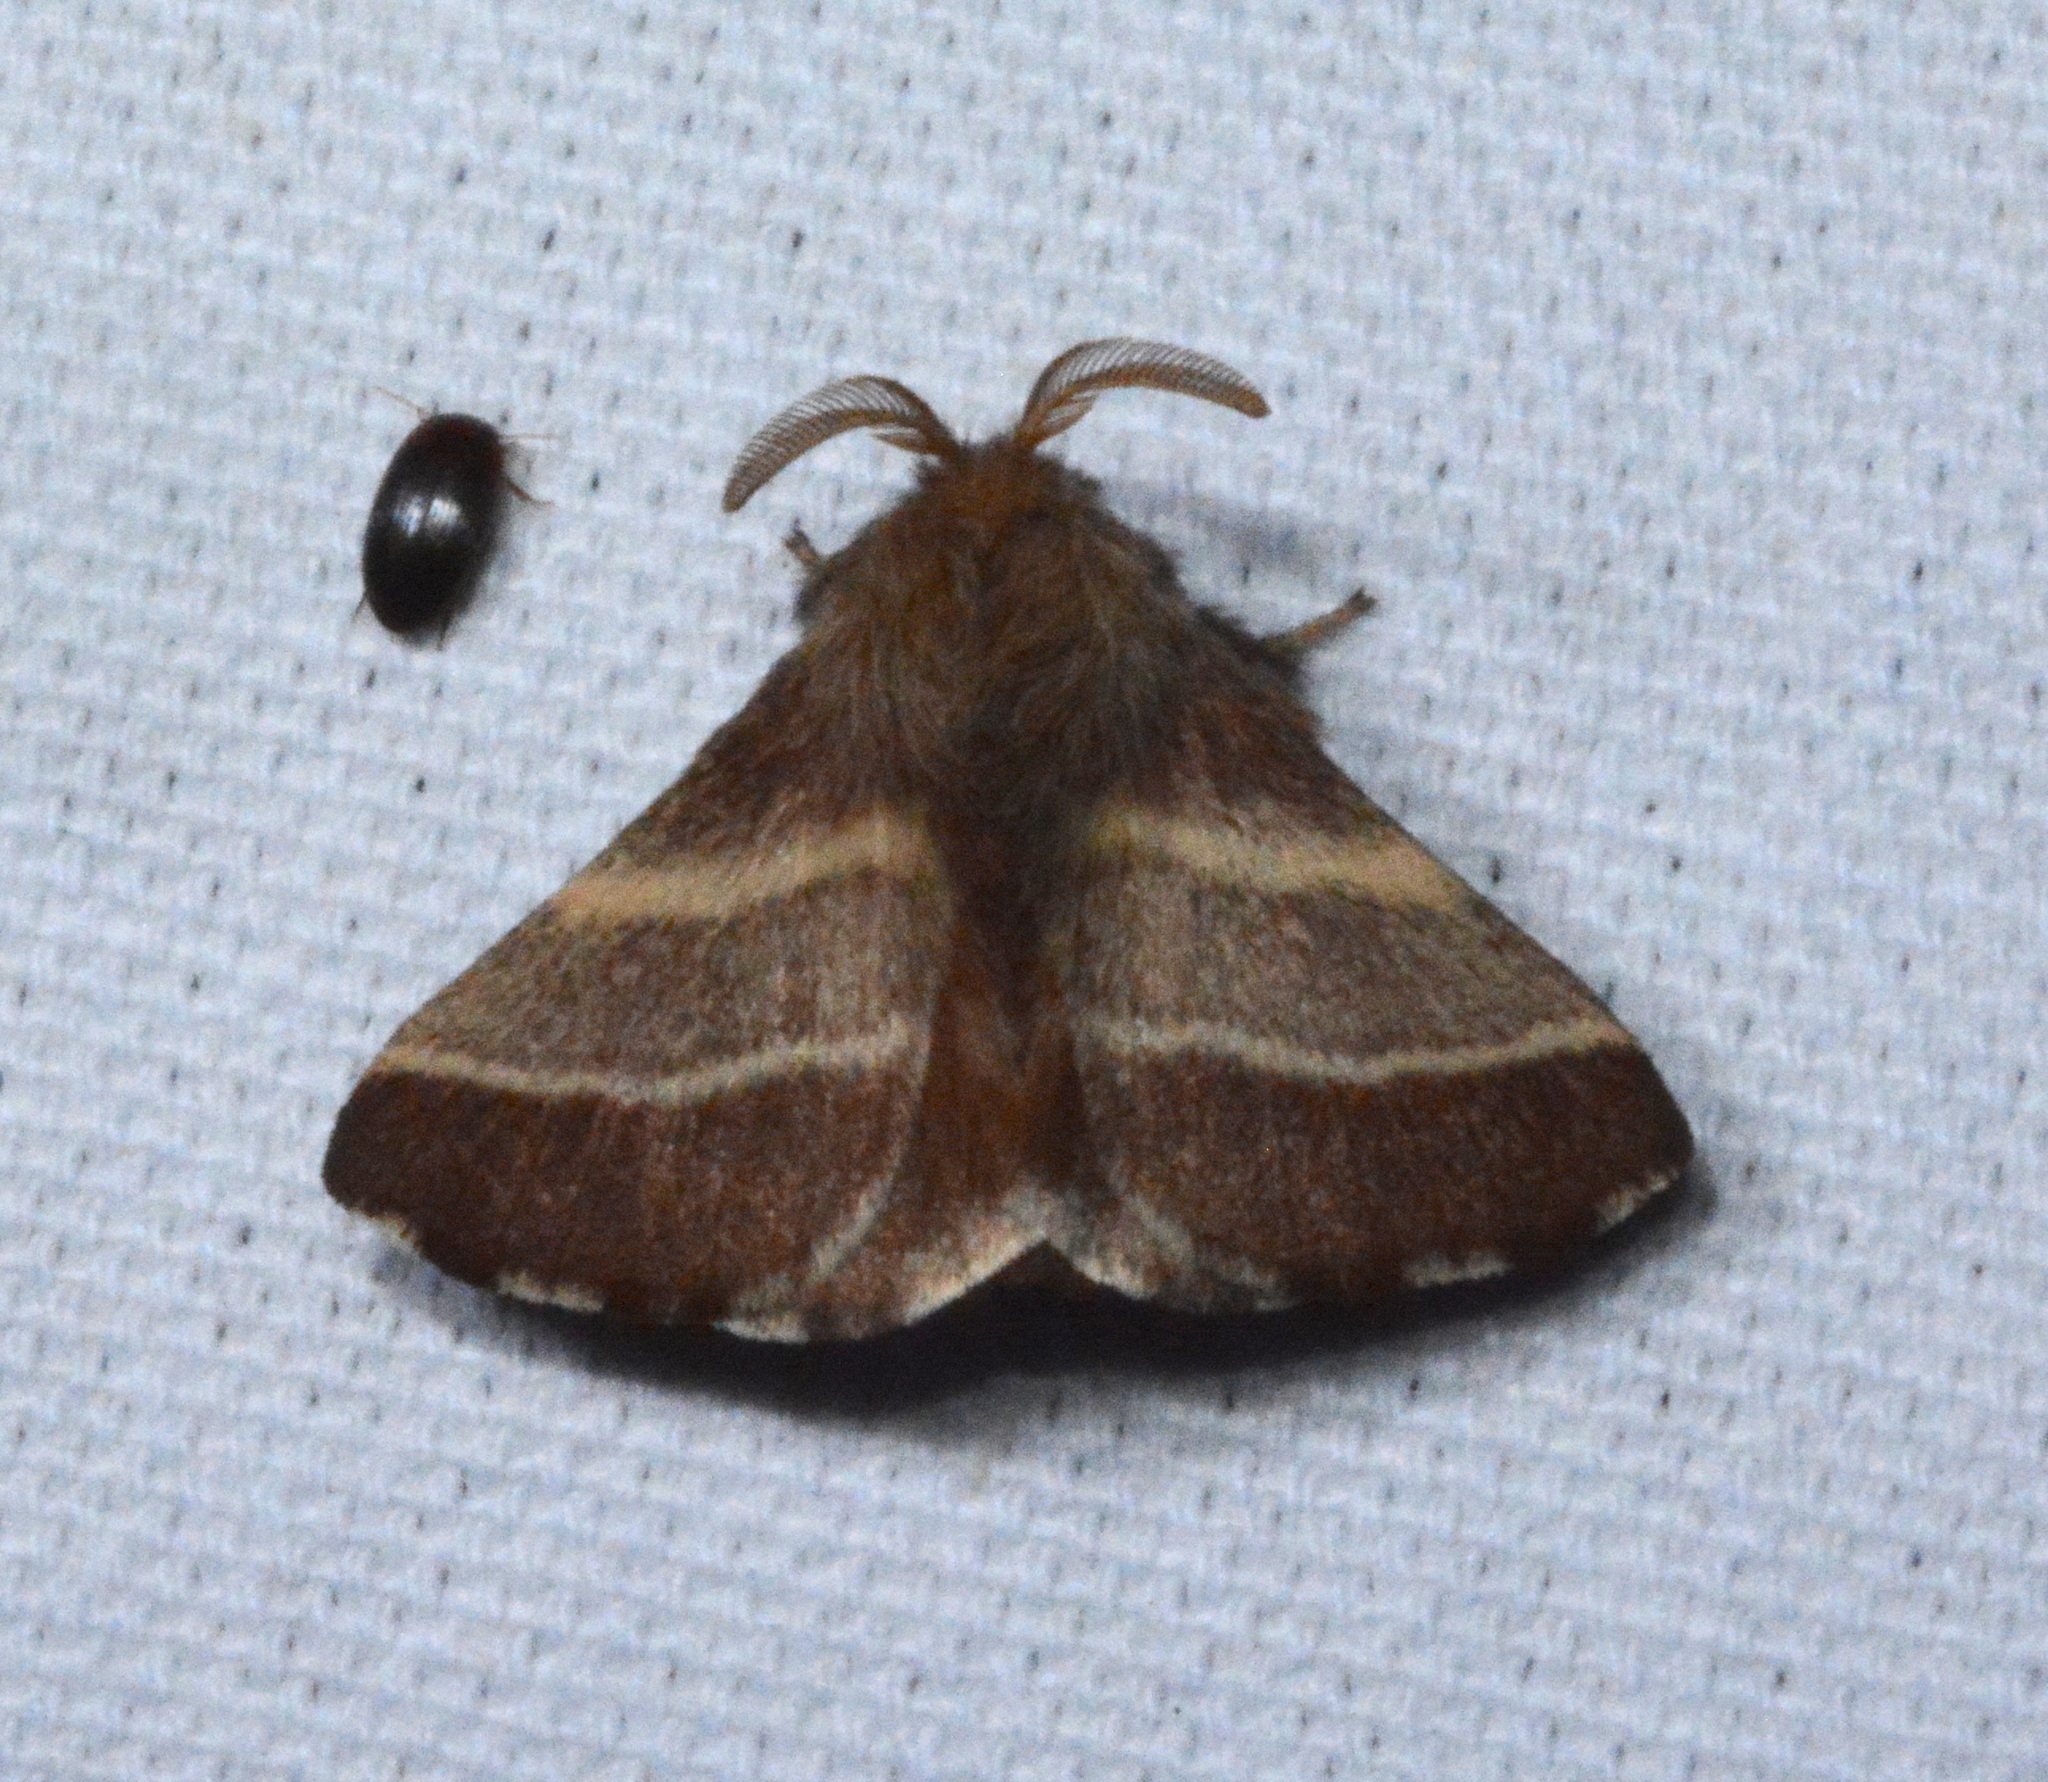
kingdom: Animalia
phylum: Arthropoda
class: Insecta
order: Lepidoptera
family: Lasiocampidae
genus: Malacosoma
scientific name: Malacosoma americana
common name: Eastern tent caterpillar moth
